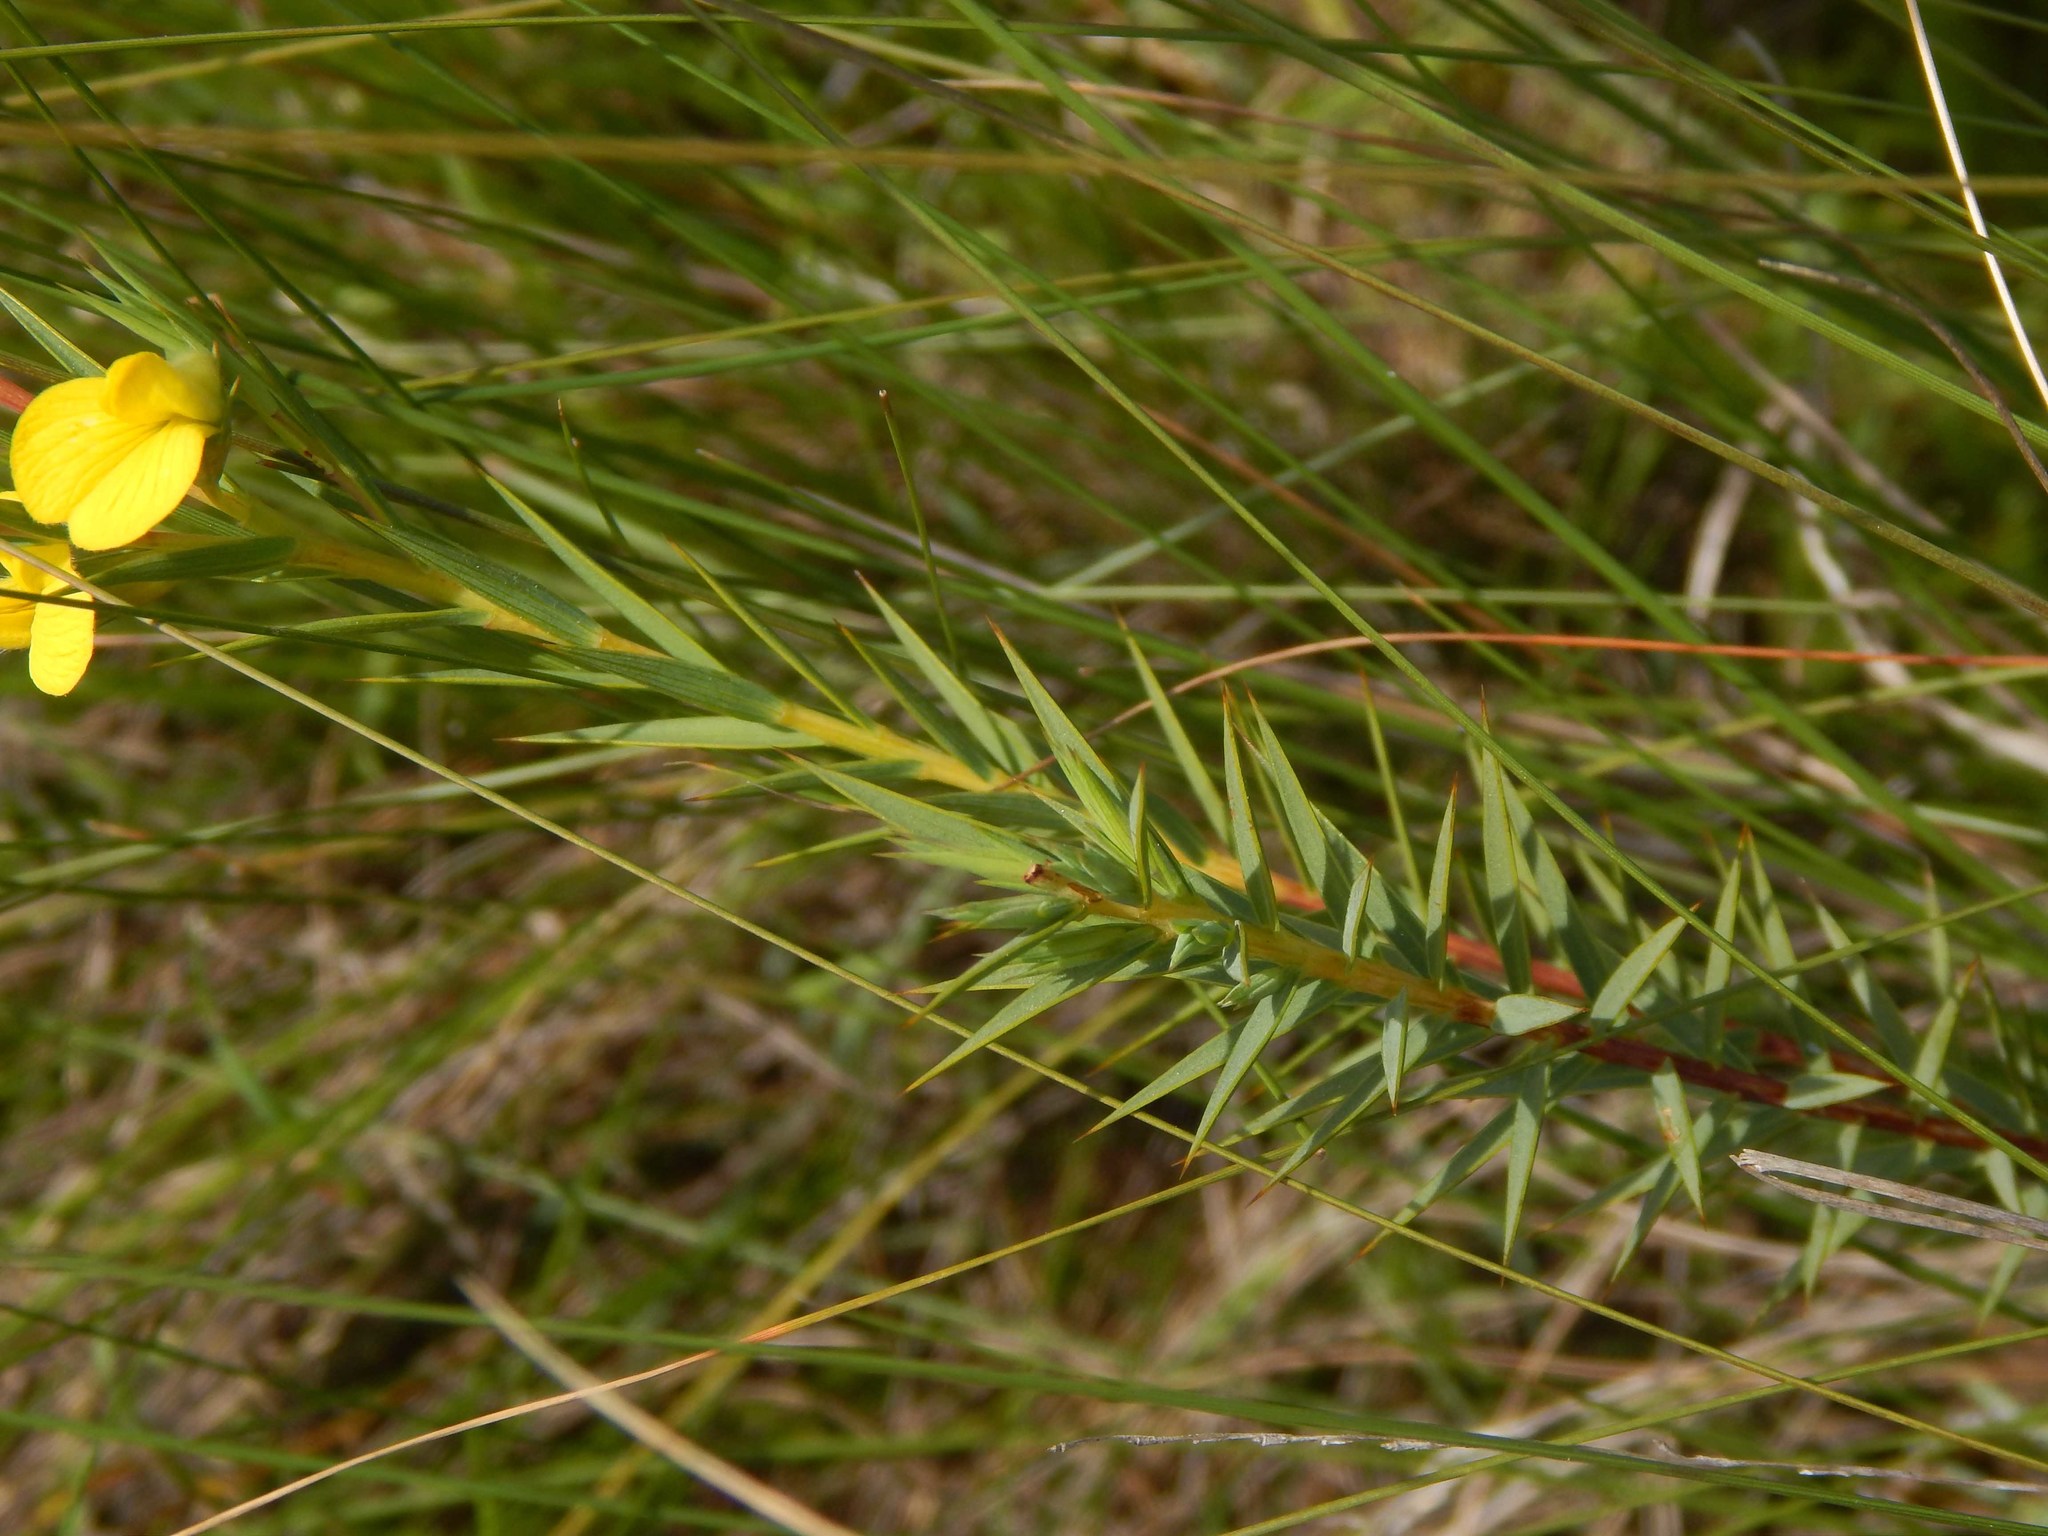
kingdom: Plantae
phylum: Tracheophyta
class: Magnoliopsida
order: Fabales
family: Fabaceae
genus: Aspalathus
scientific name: Aspalathus angustifolia
